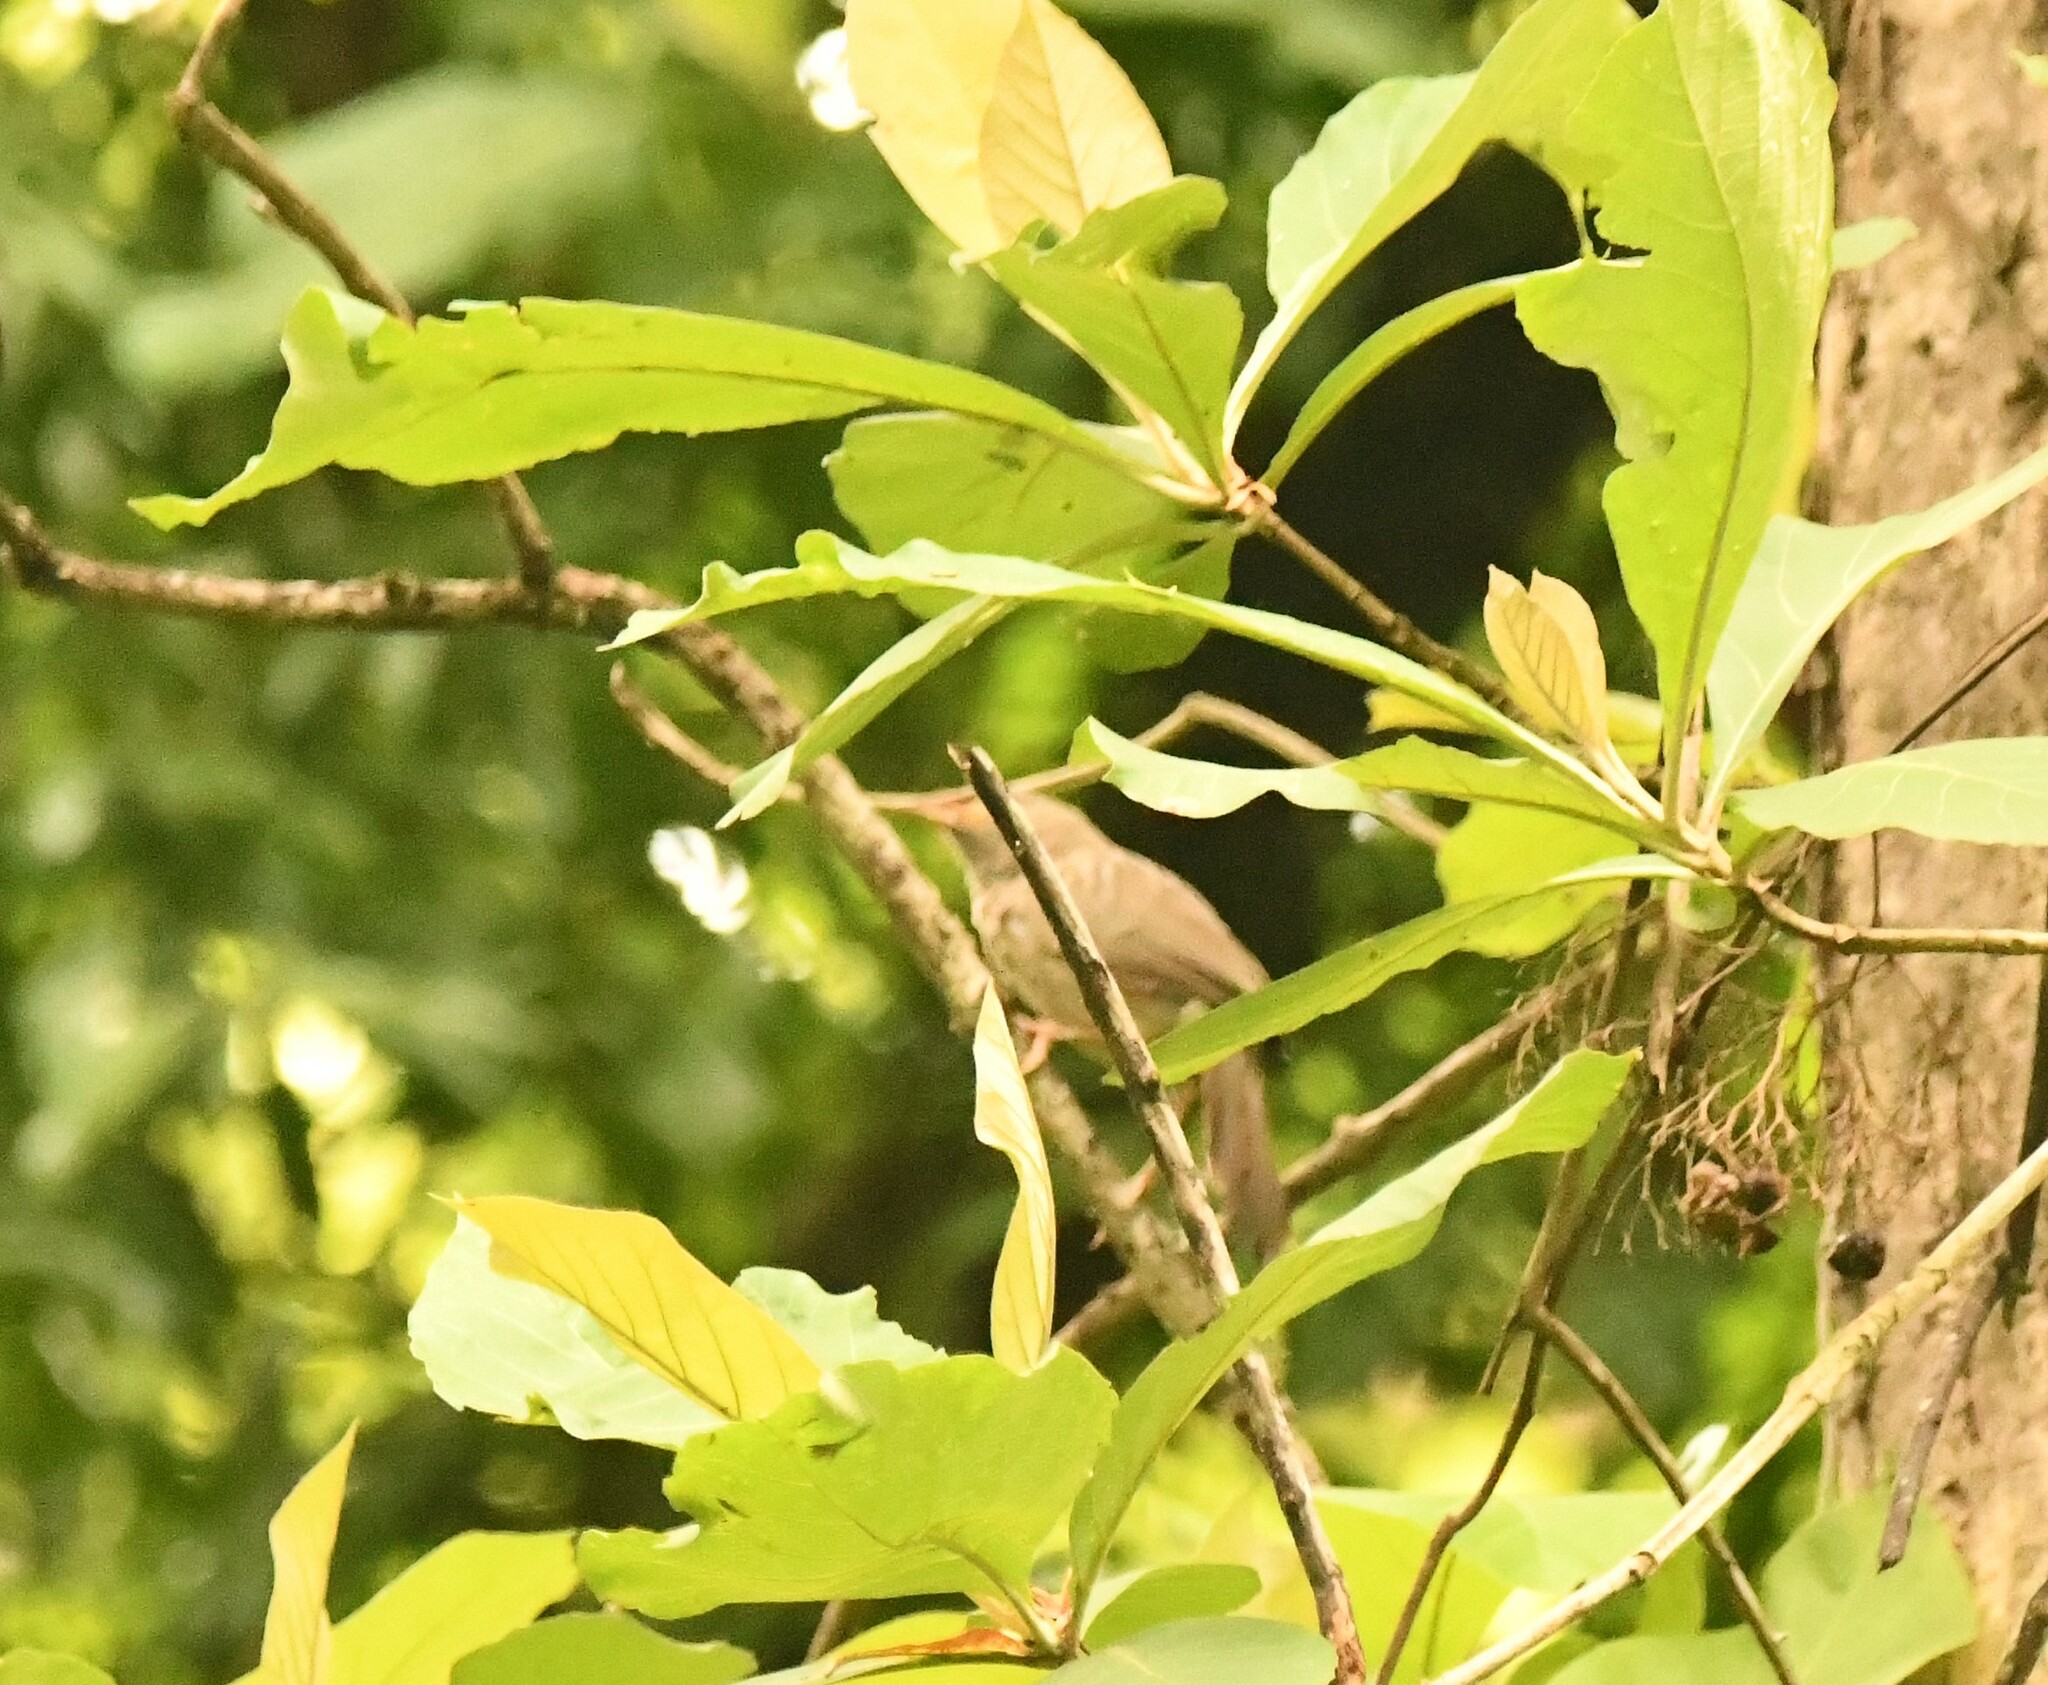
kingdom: Animalia
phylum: Chordata
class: Aves
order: Passeriformes
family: Leiothrichidae
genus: Turdoides
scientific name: Turdoides striata
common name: Jungle babbler
